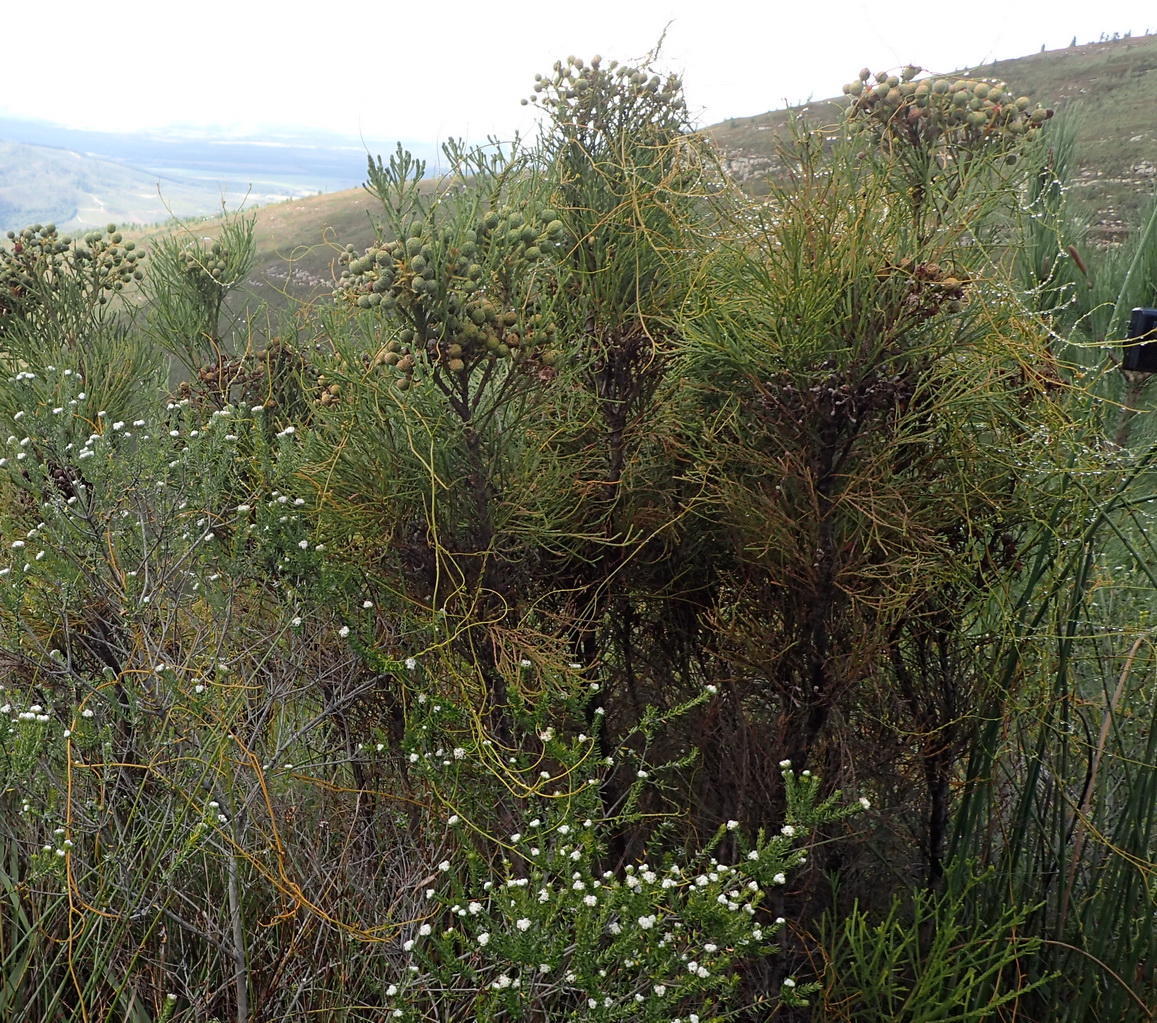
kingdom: Plantae
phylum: Tracheophyta
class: Magnoliopsida
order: Bruniales
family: Bruniaceae
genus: Berzelia
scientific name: Berzelia intermedia
